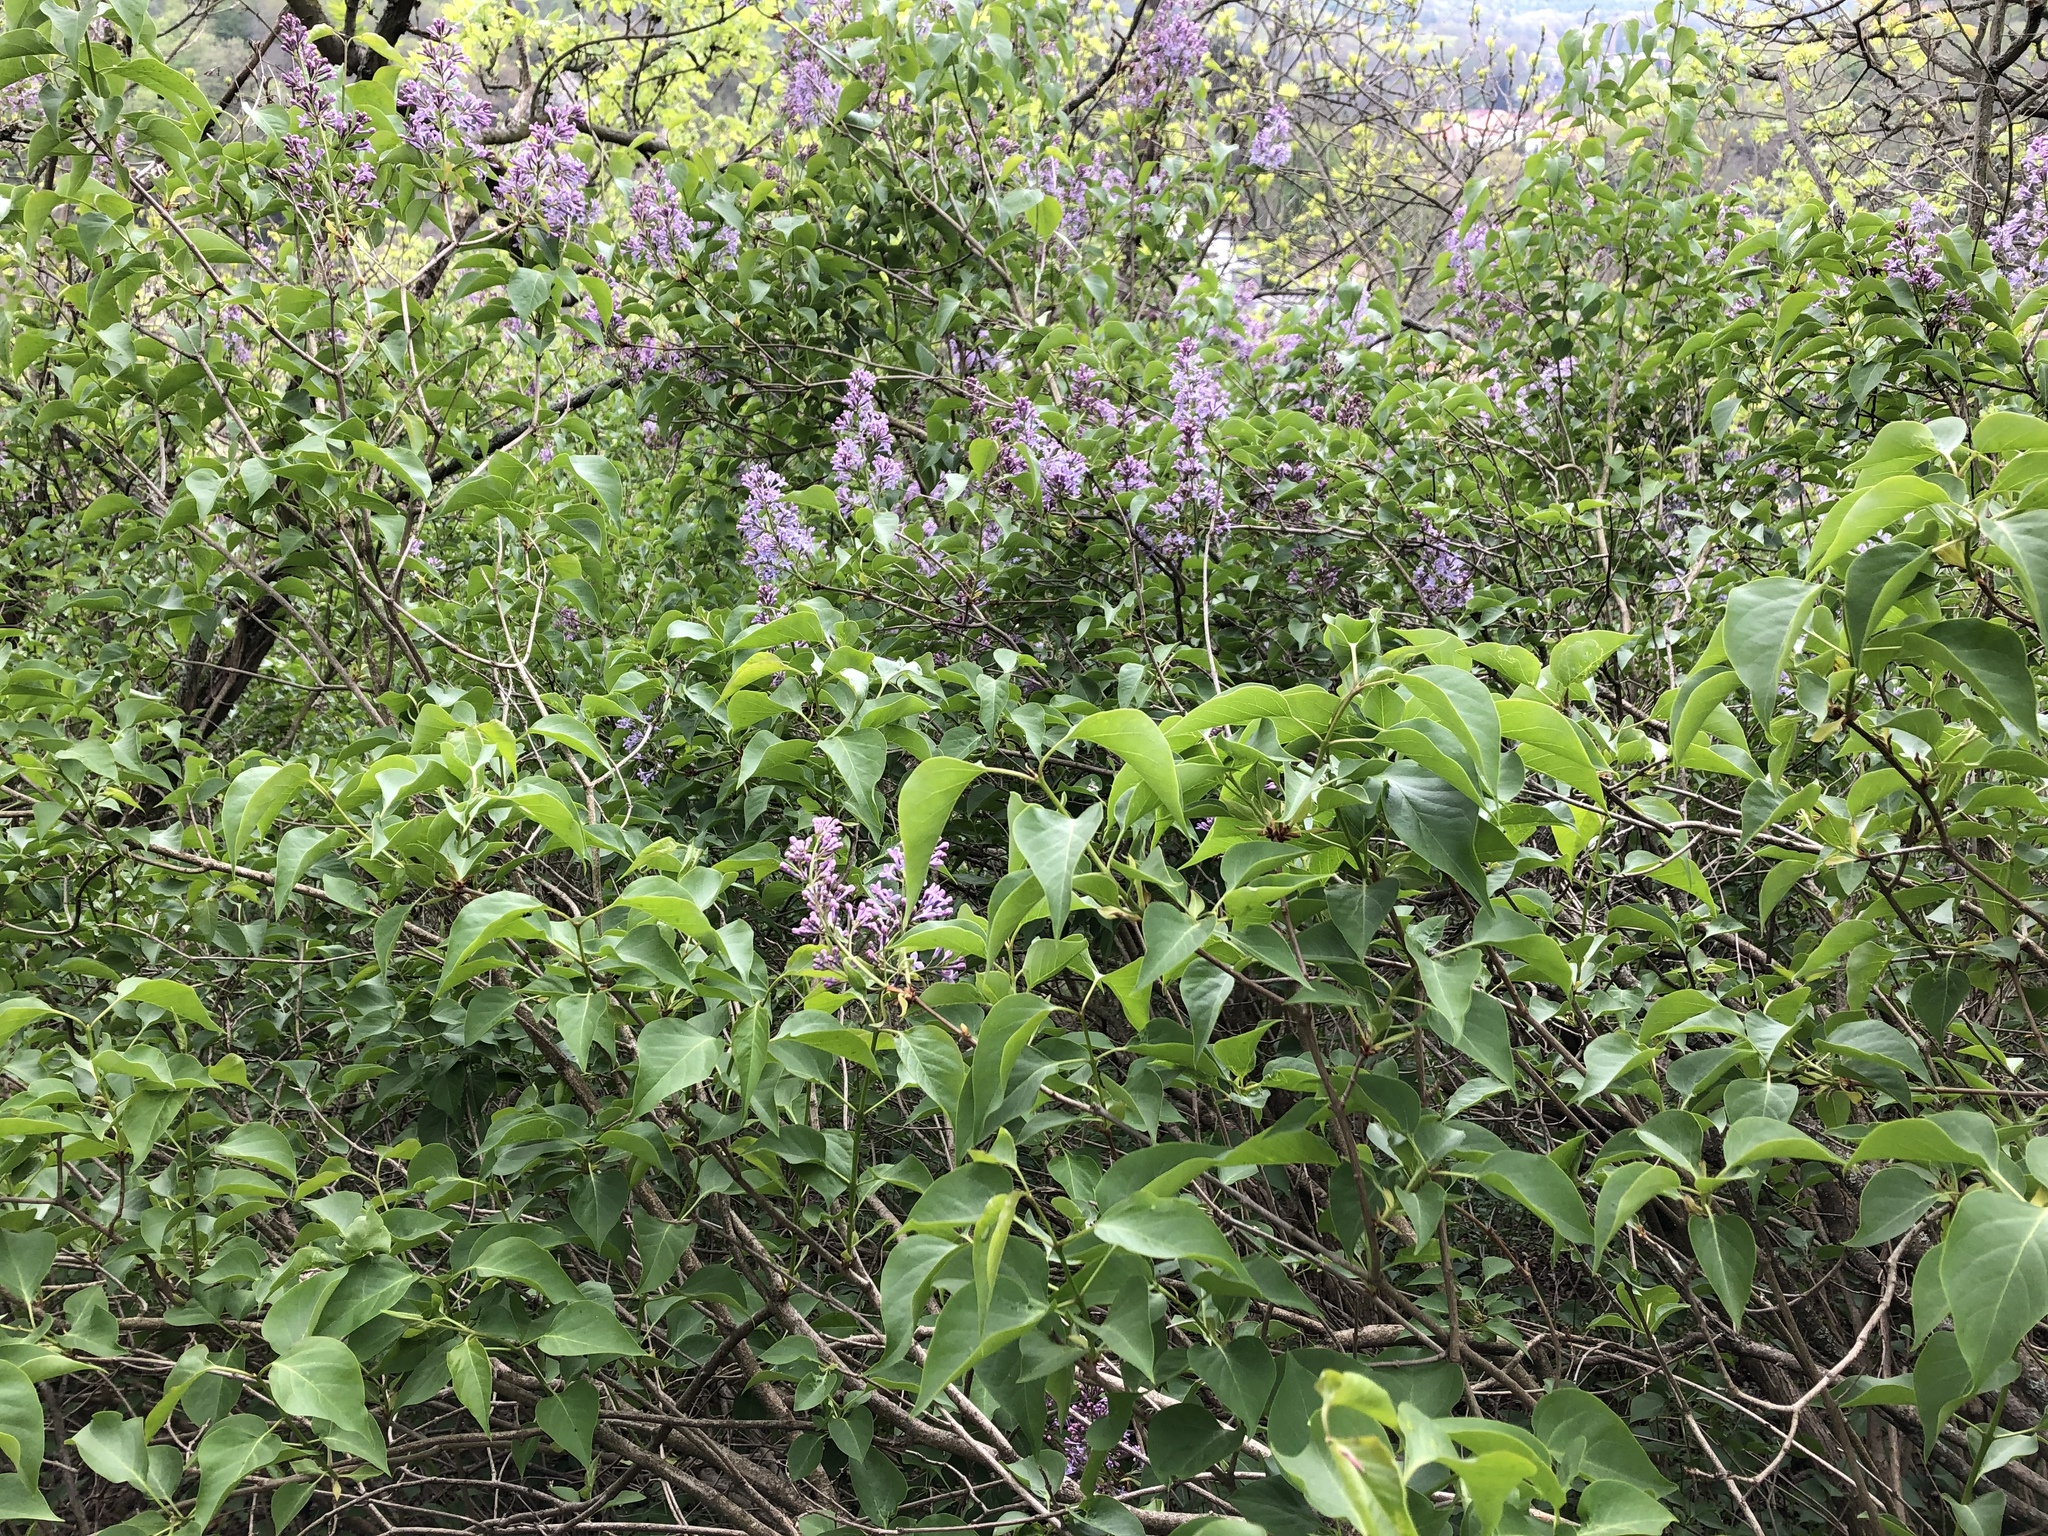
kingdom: Plantae
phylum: Tracheophyta
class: Magnoliopsida
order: Lamiales
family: Oleaceae
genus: Syringa
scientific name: Syringa vulgaris
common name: Common lilac
